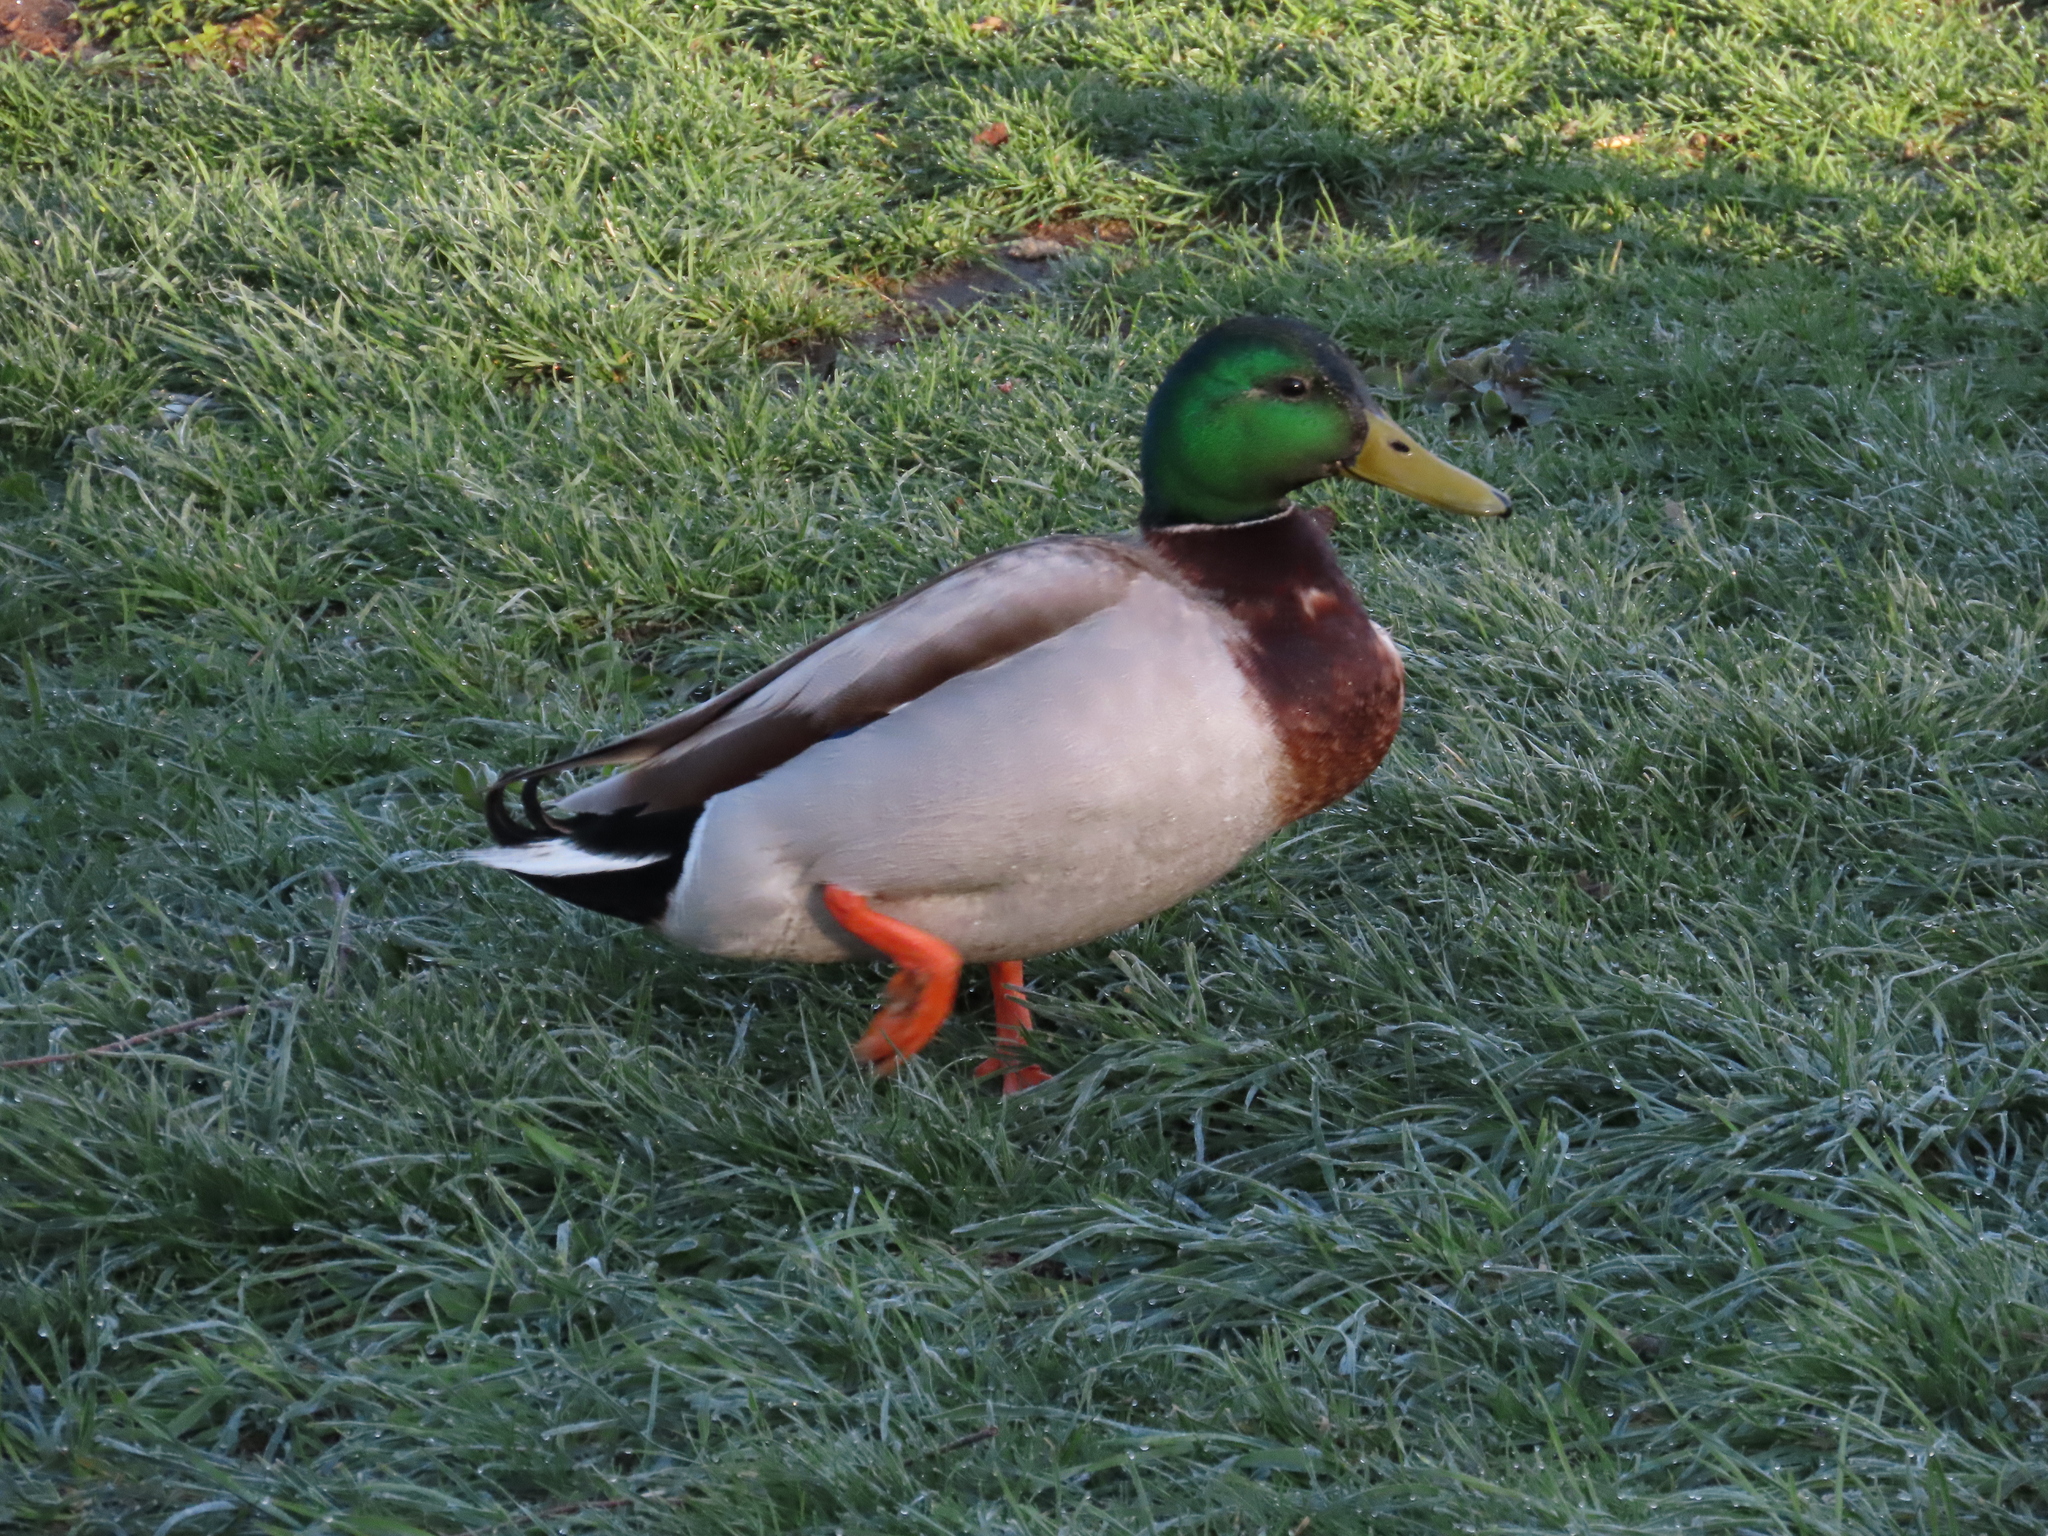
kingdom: Animalia
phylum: Chordata
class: Aves
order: Anseriformes
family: Anatidae
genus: Anas
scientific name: Anas platyrhynchos
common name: Mallard
